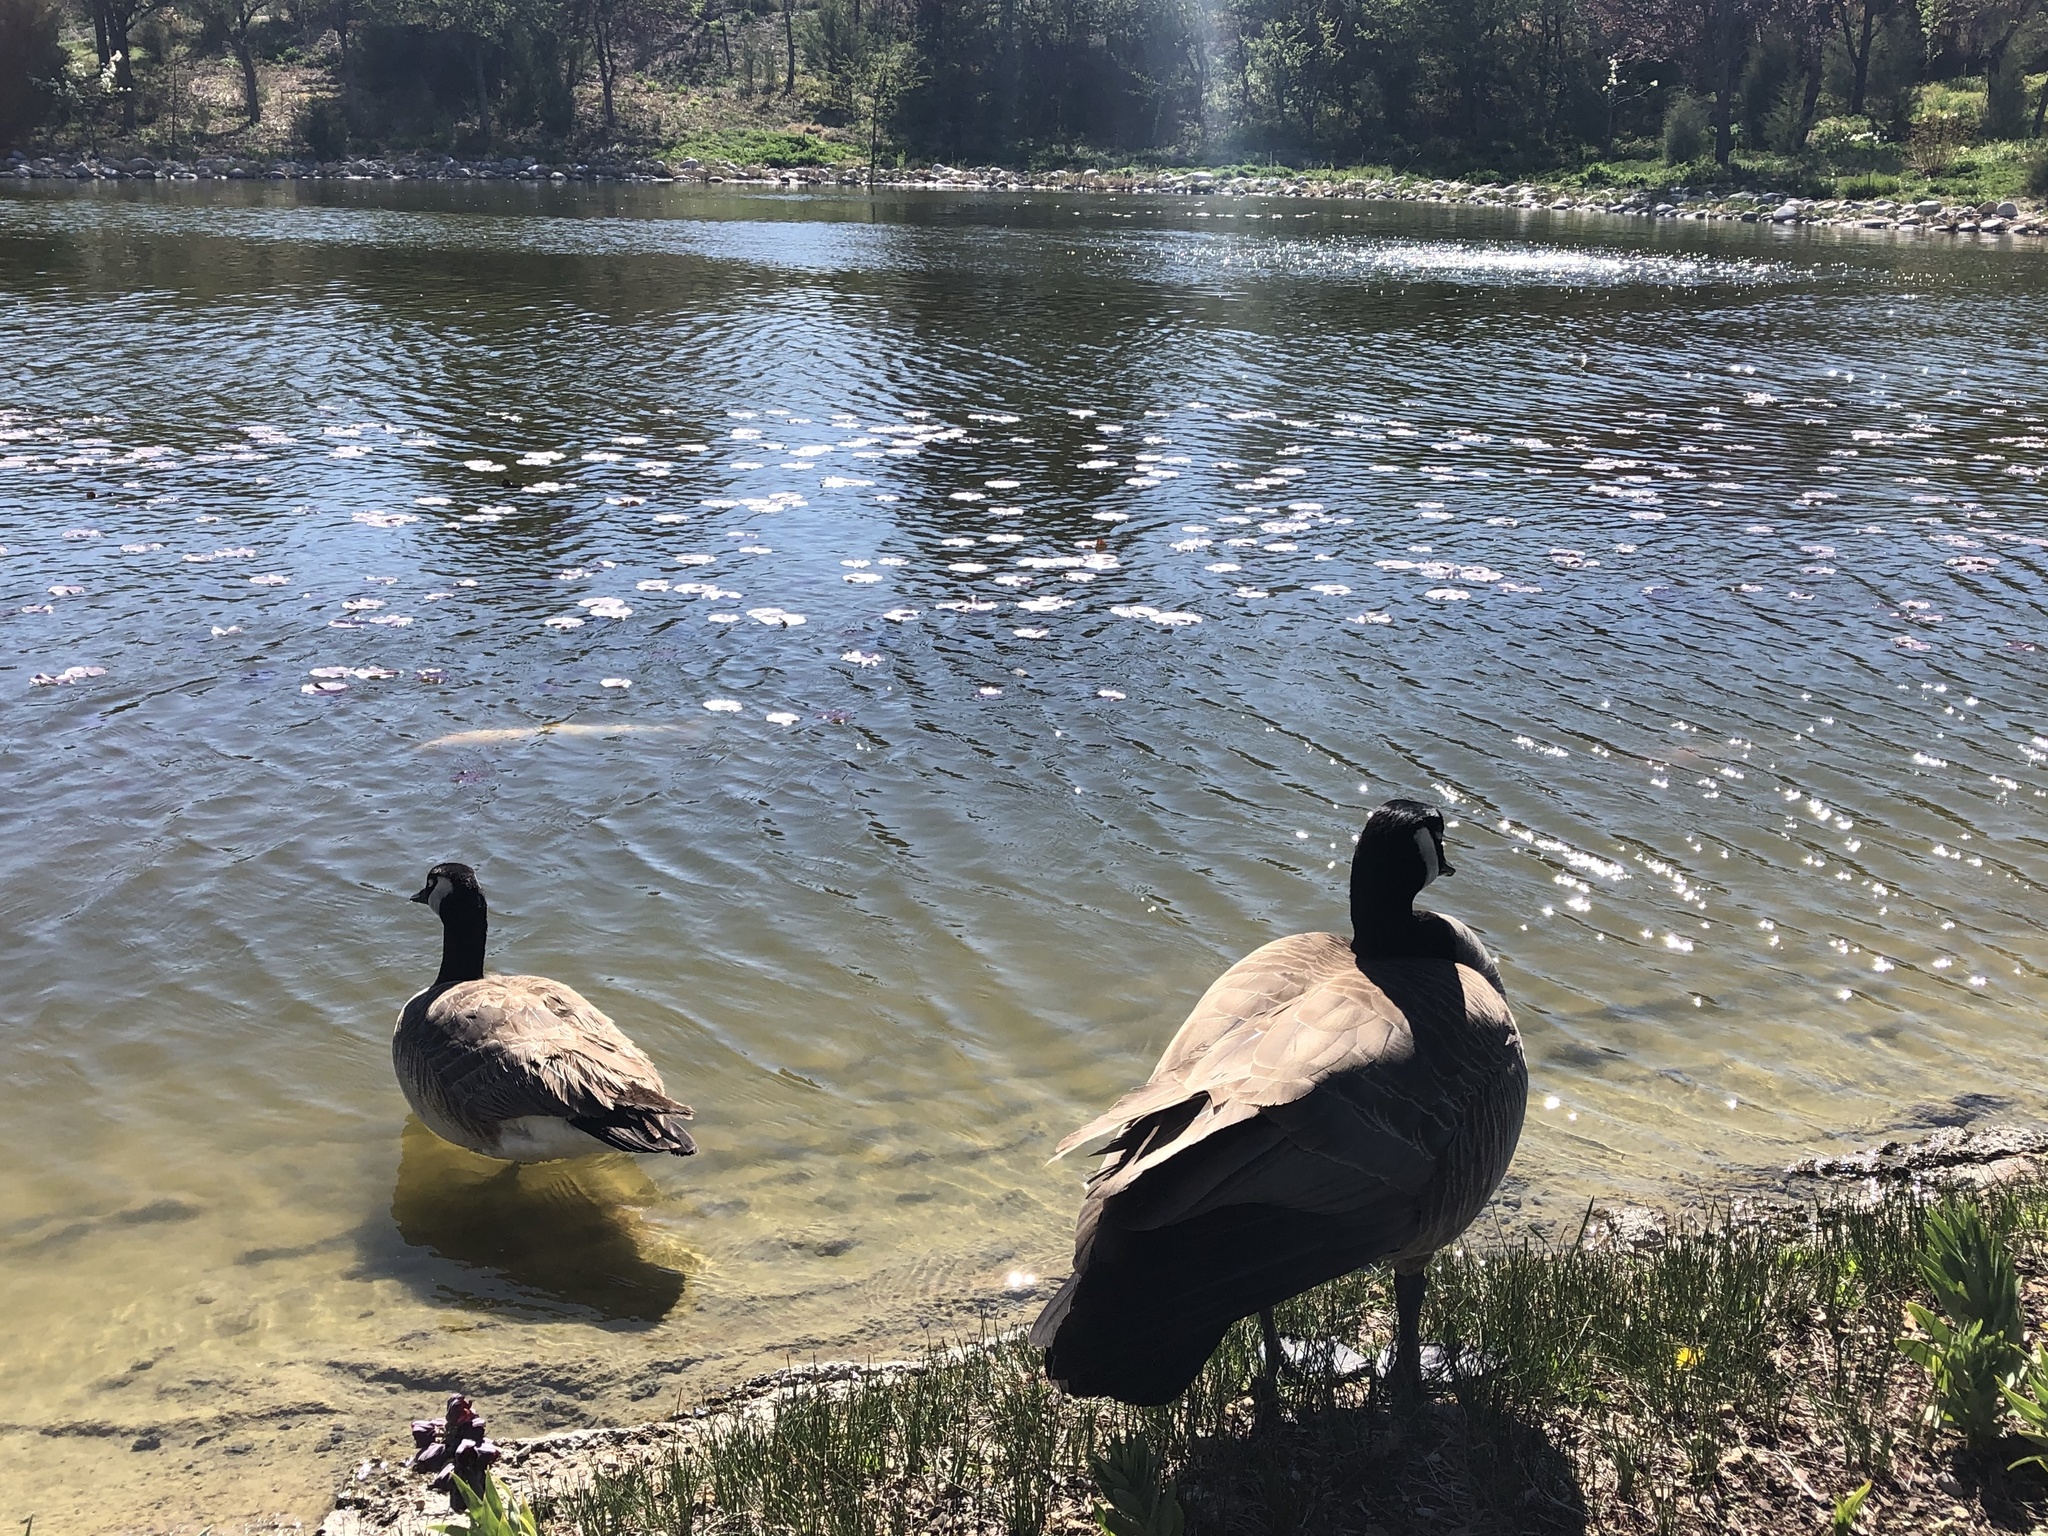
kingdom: Animalia
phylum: Chordata
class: Aves
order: Anseriformes
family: Anatidae
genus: Branta
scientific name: Branta canadensis
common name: Canada goose
